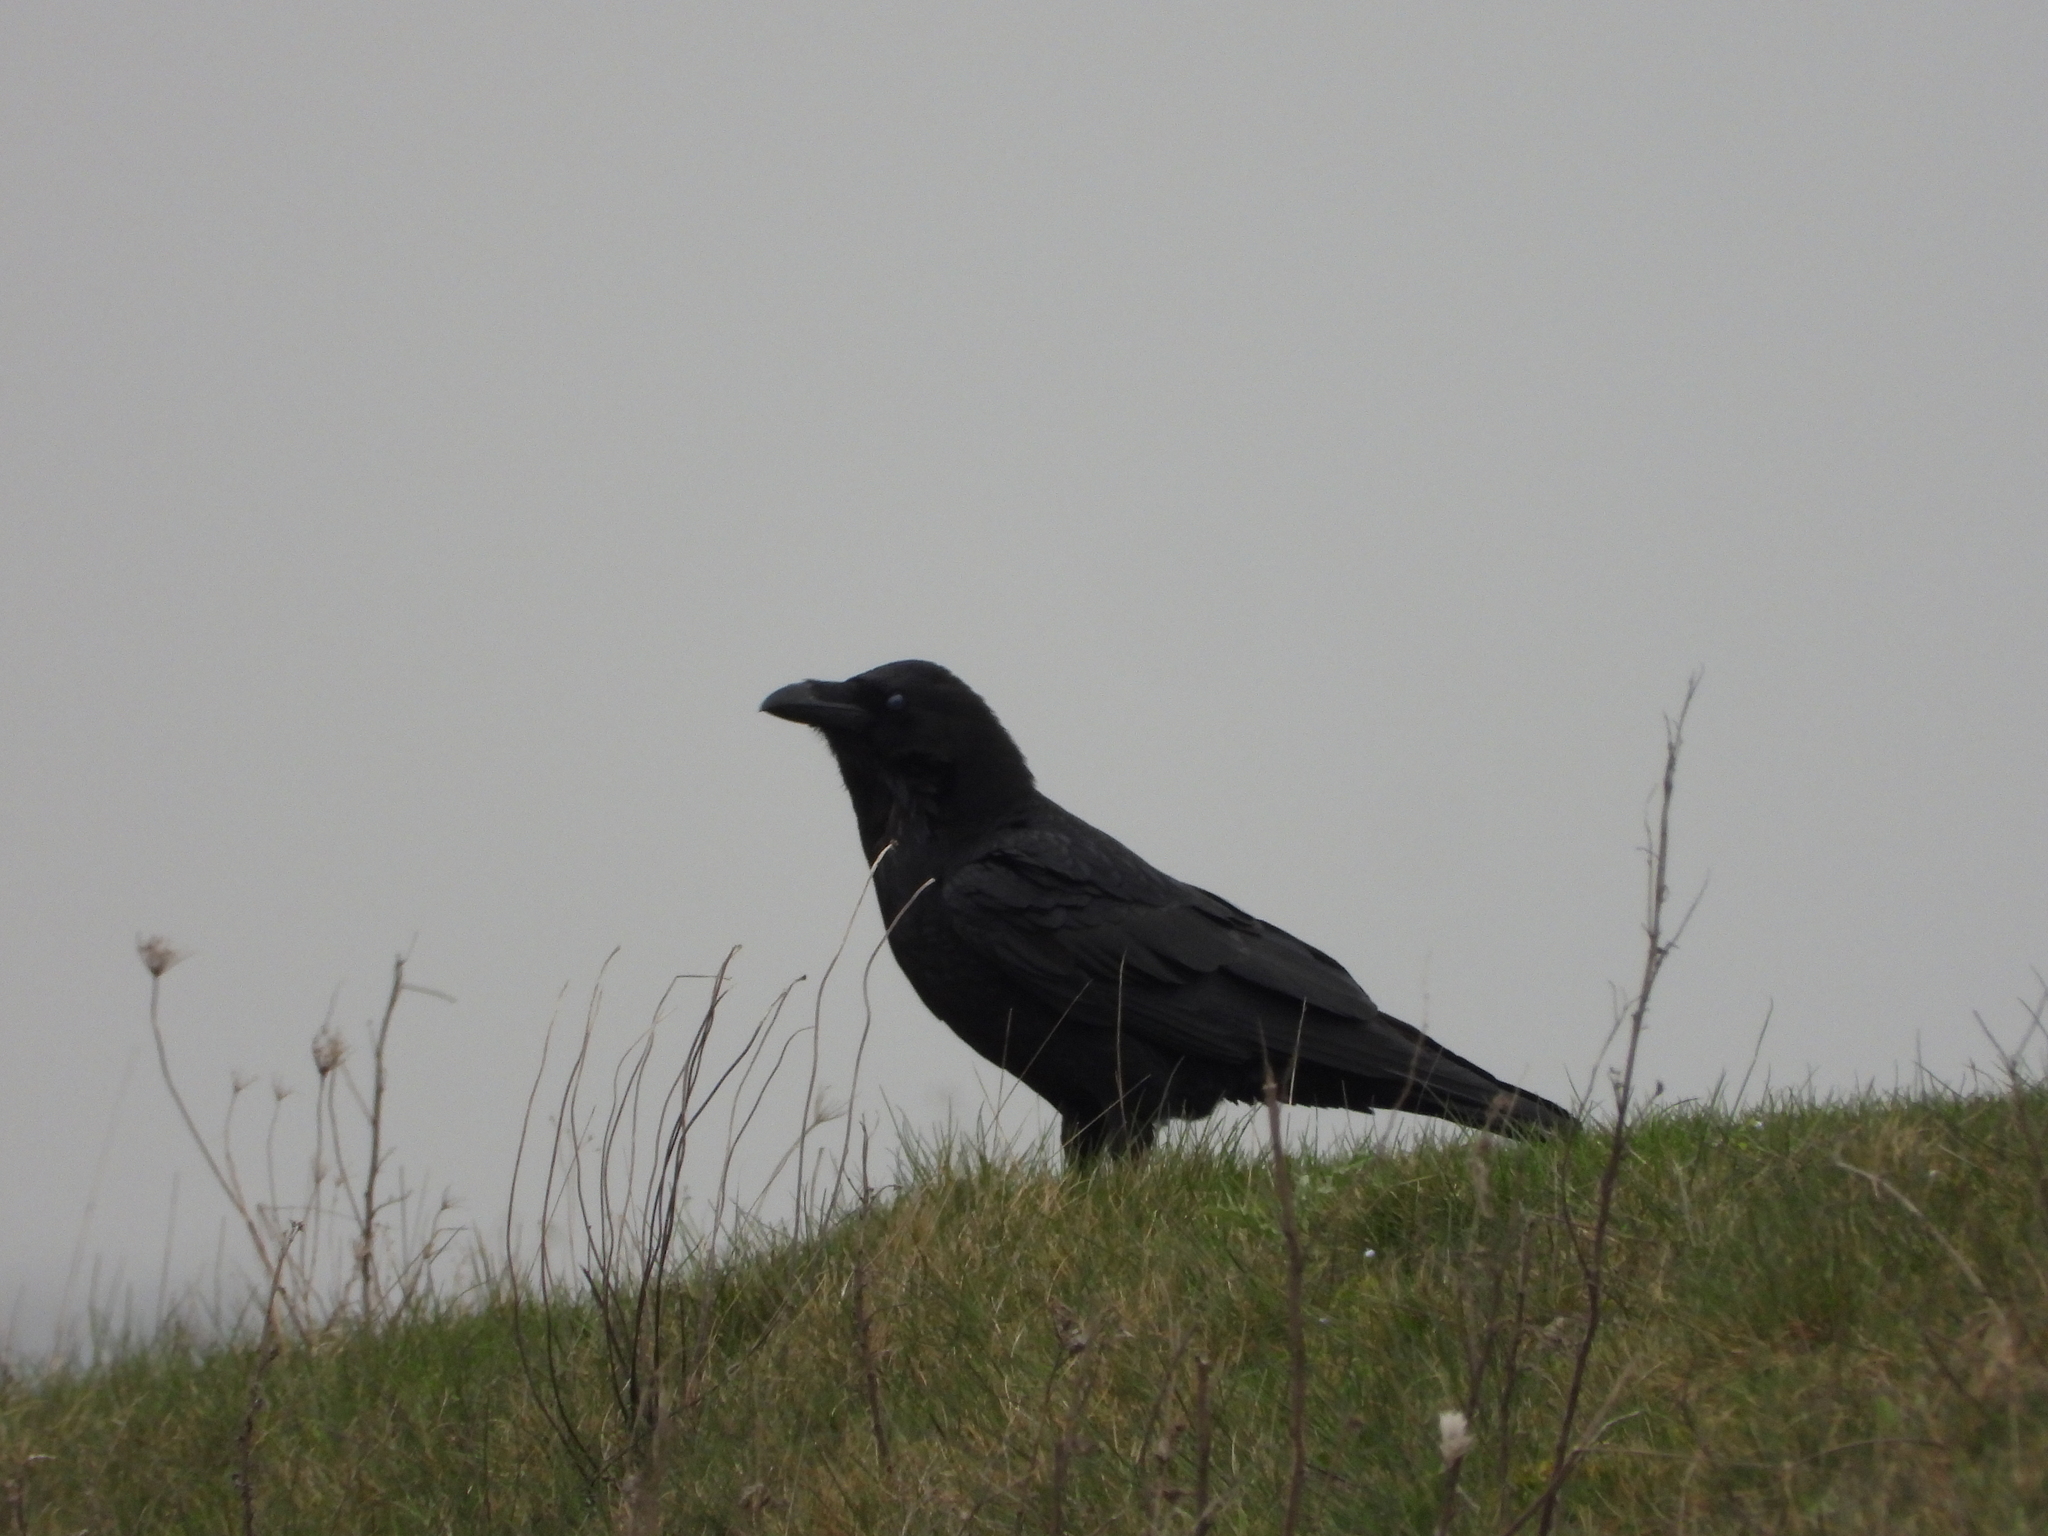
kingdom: Animalia
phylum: Chordata
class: Aves
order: Passeriformes
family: Corvidae
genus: Corvus
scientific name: Corvus corax
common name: Common raven
